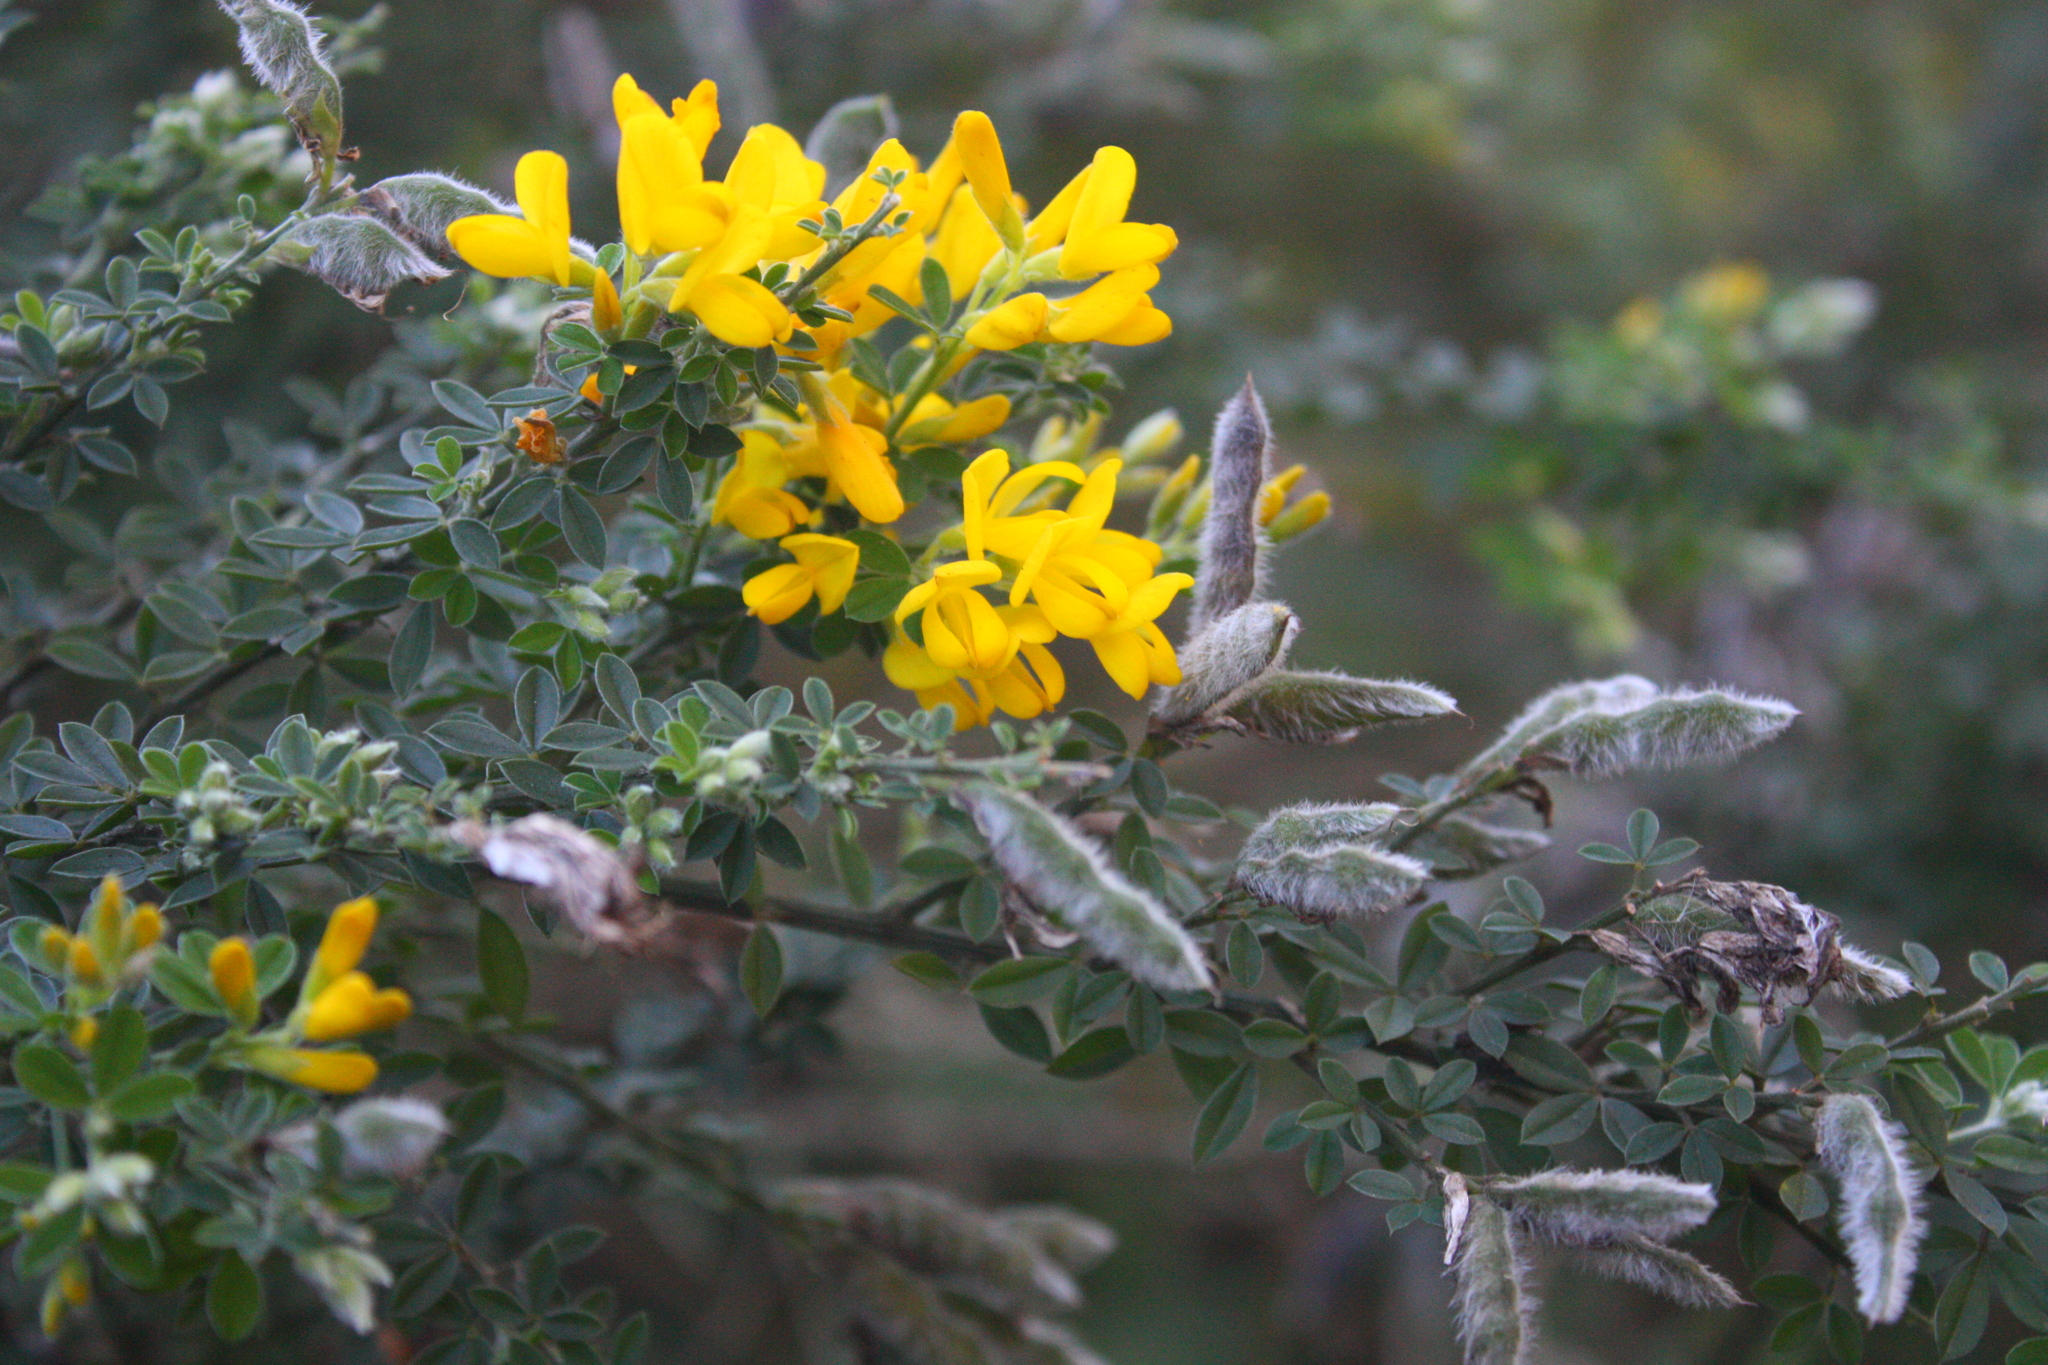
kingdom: Plantae
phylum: Tracheophyta
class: Magnoliopsida
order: Fabales
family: Fabaceae
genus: Genista
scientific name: Genista monspessulana
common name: Montpellier broom
